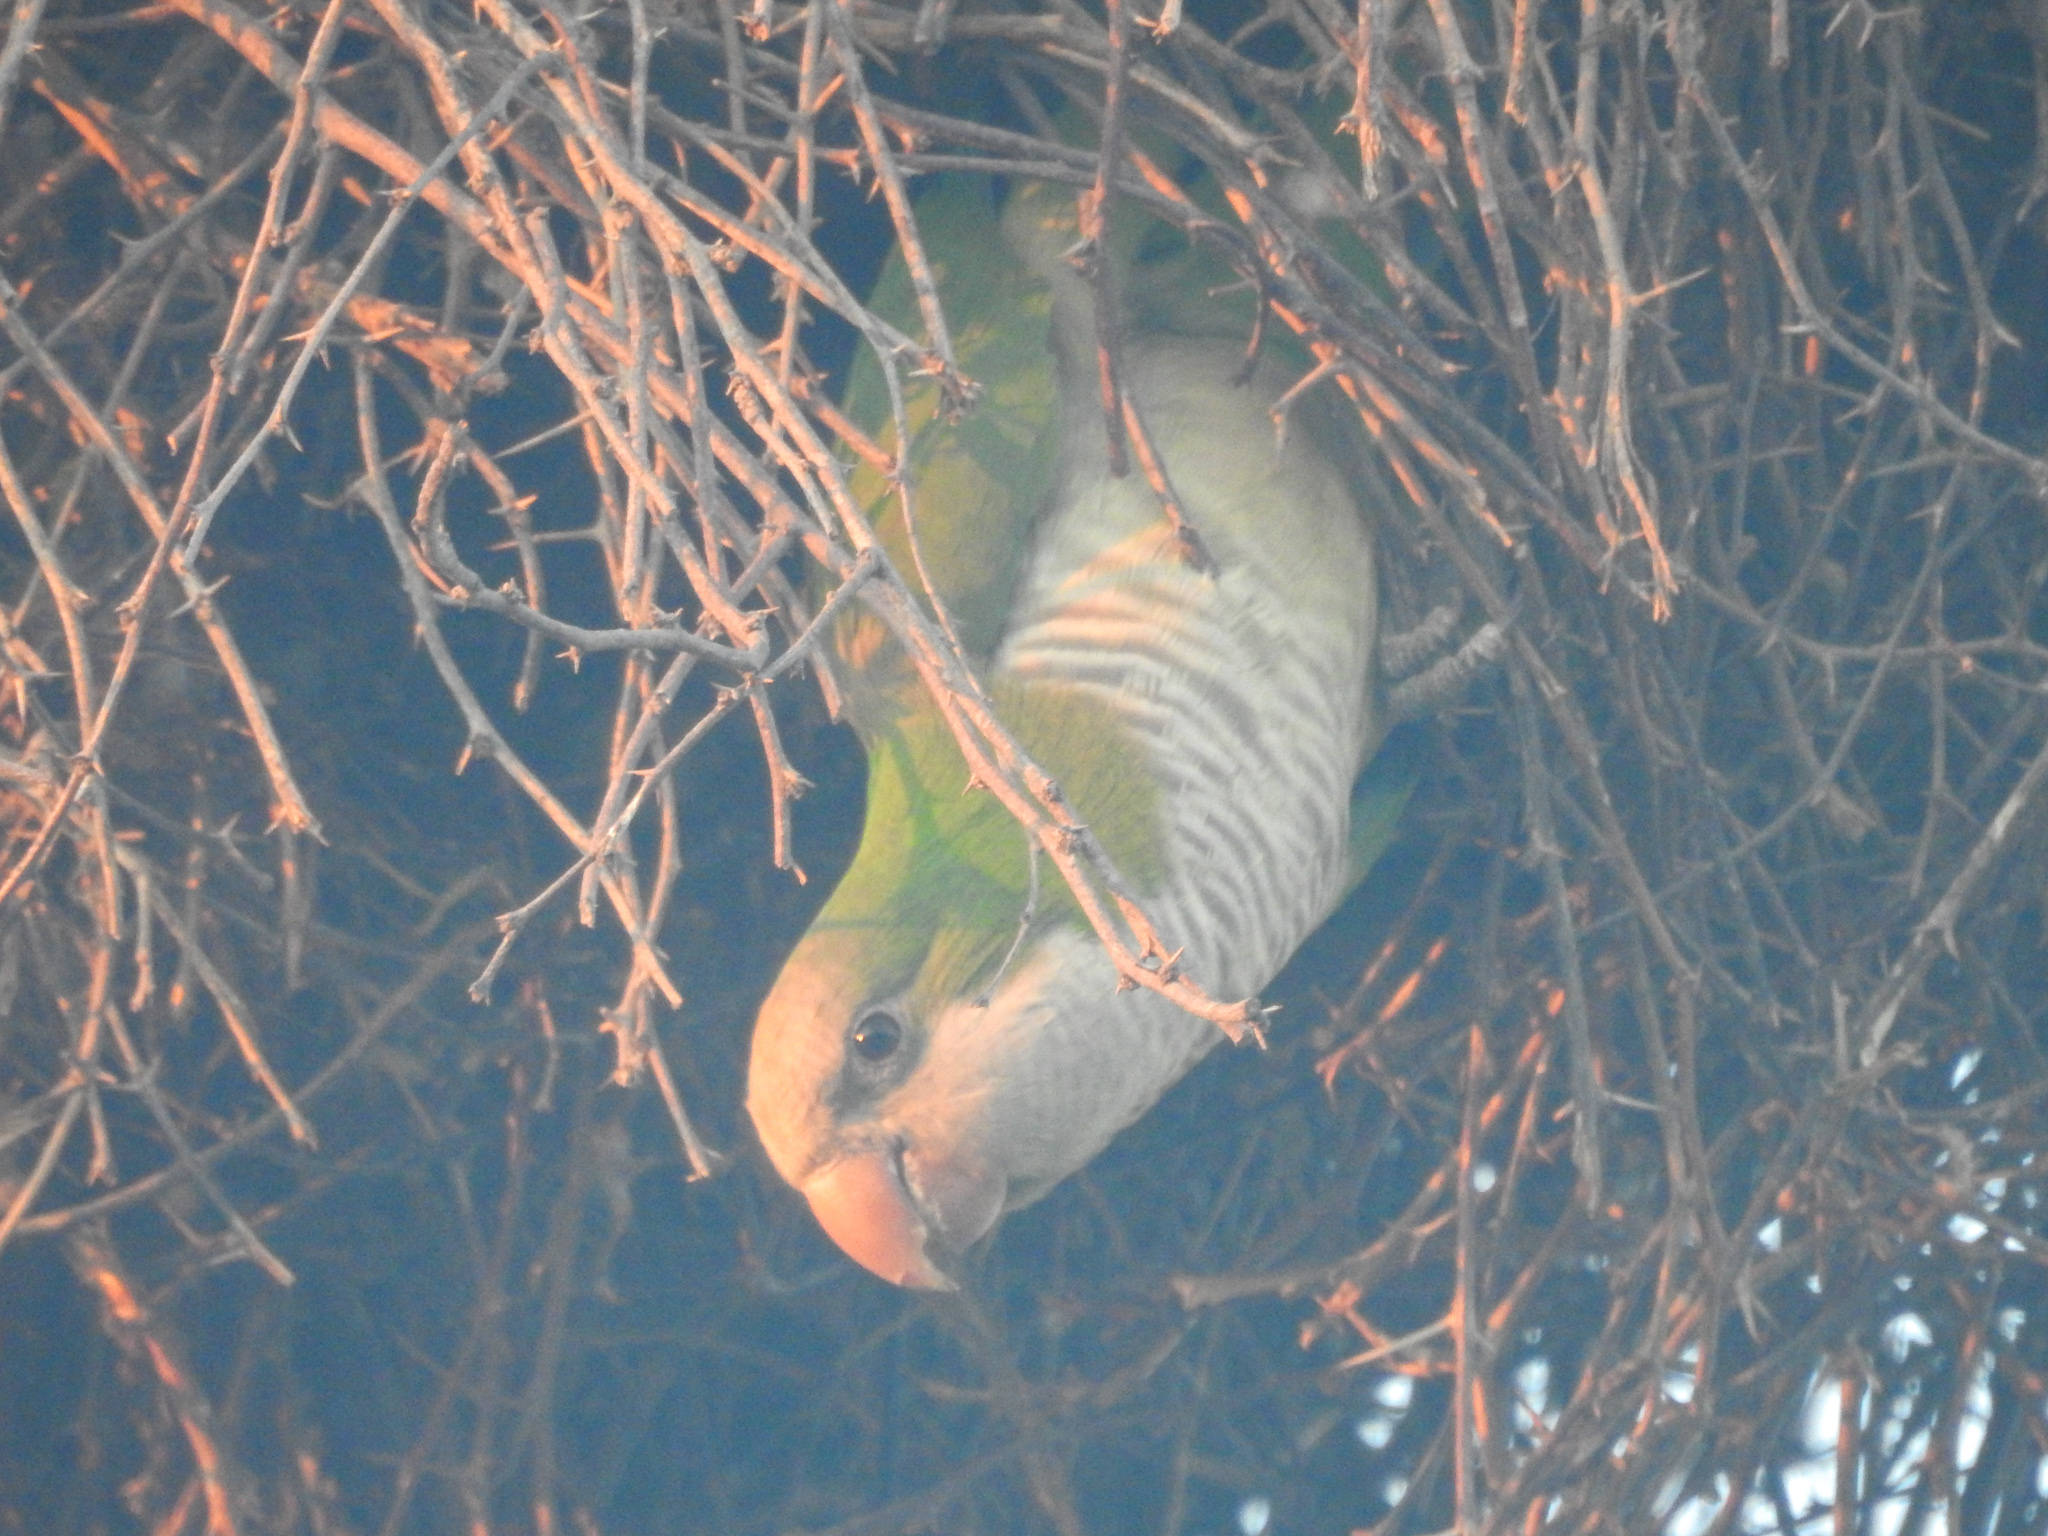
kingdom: Animalia
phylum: Chordata
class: Aves
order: Psittaciformes
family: Psittacidae
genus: Myiopsitta
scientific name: Myiopsitta monachus
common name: Monk parakeet
